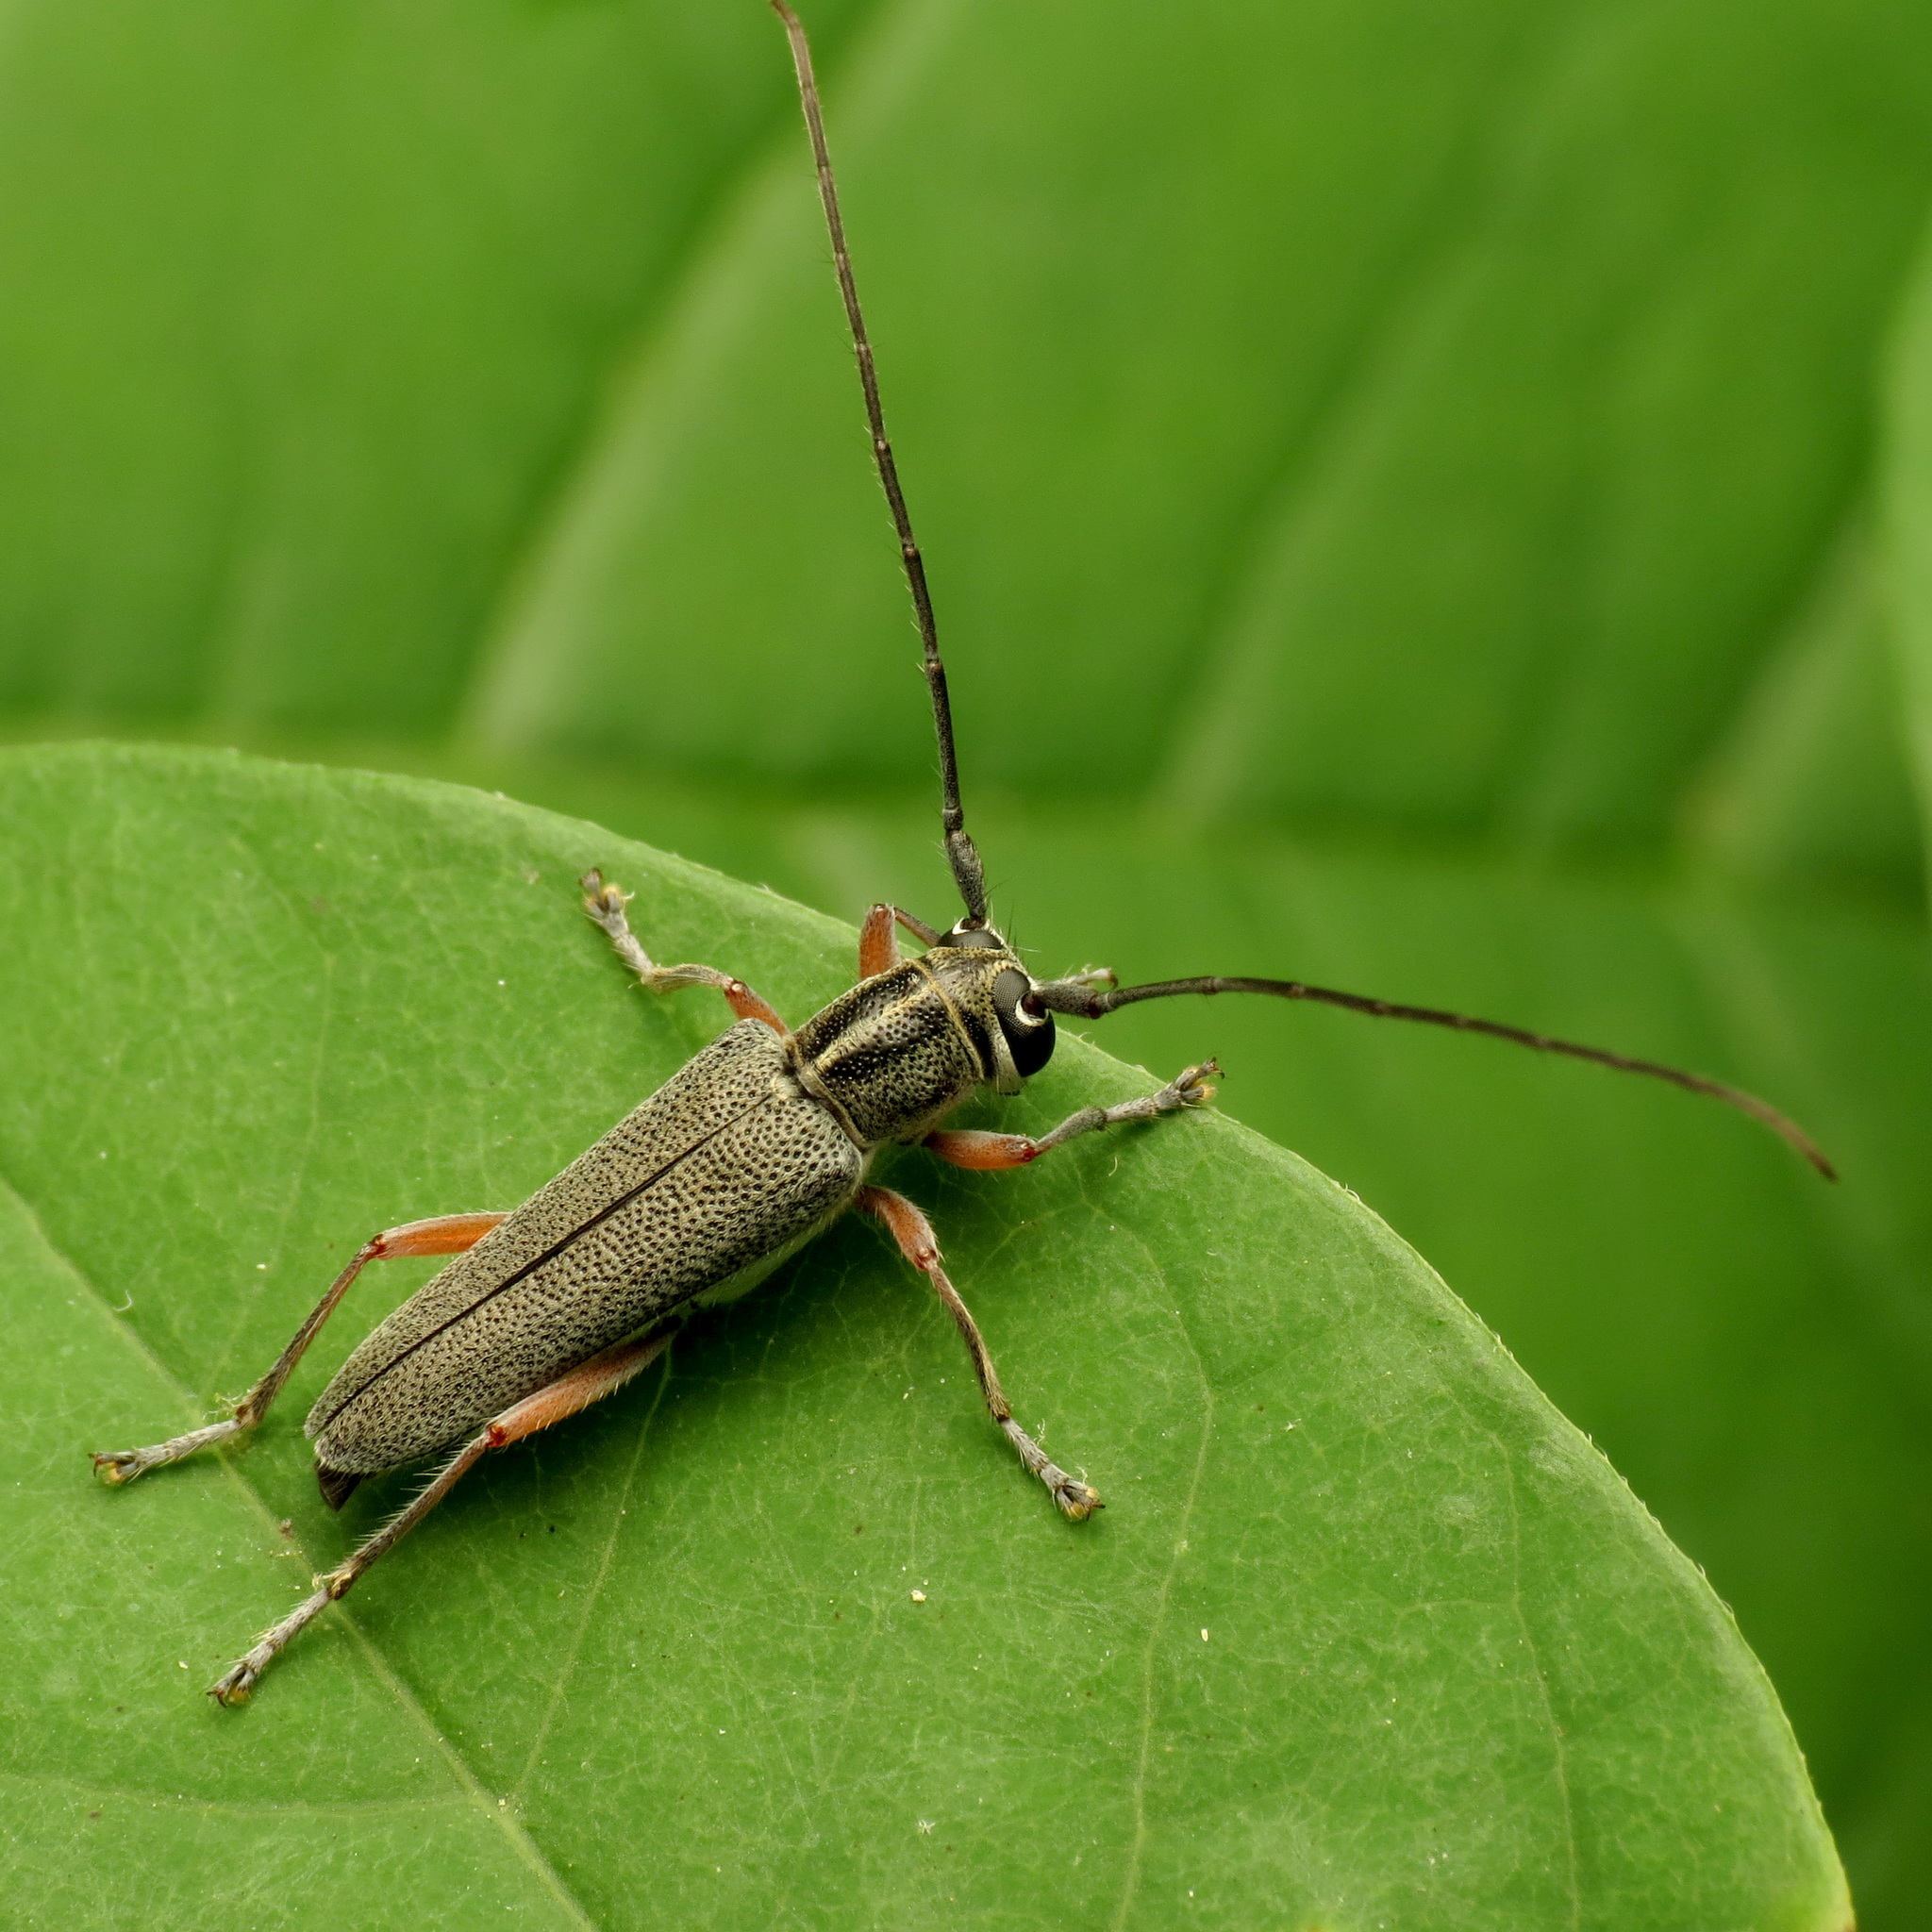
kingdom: Animalia
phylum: Arthropoda
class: Insecta
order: Coleoptera
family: Cerambycidae
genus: Saperda
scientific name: Saperda discoidea
